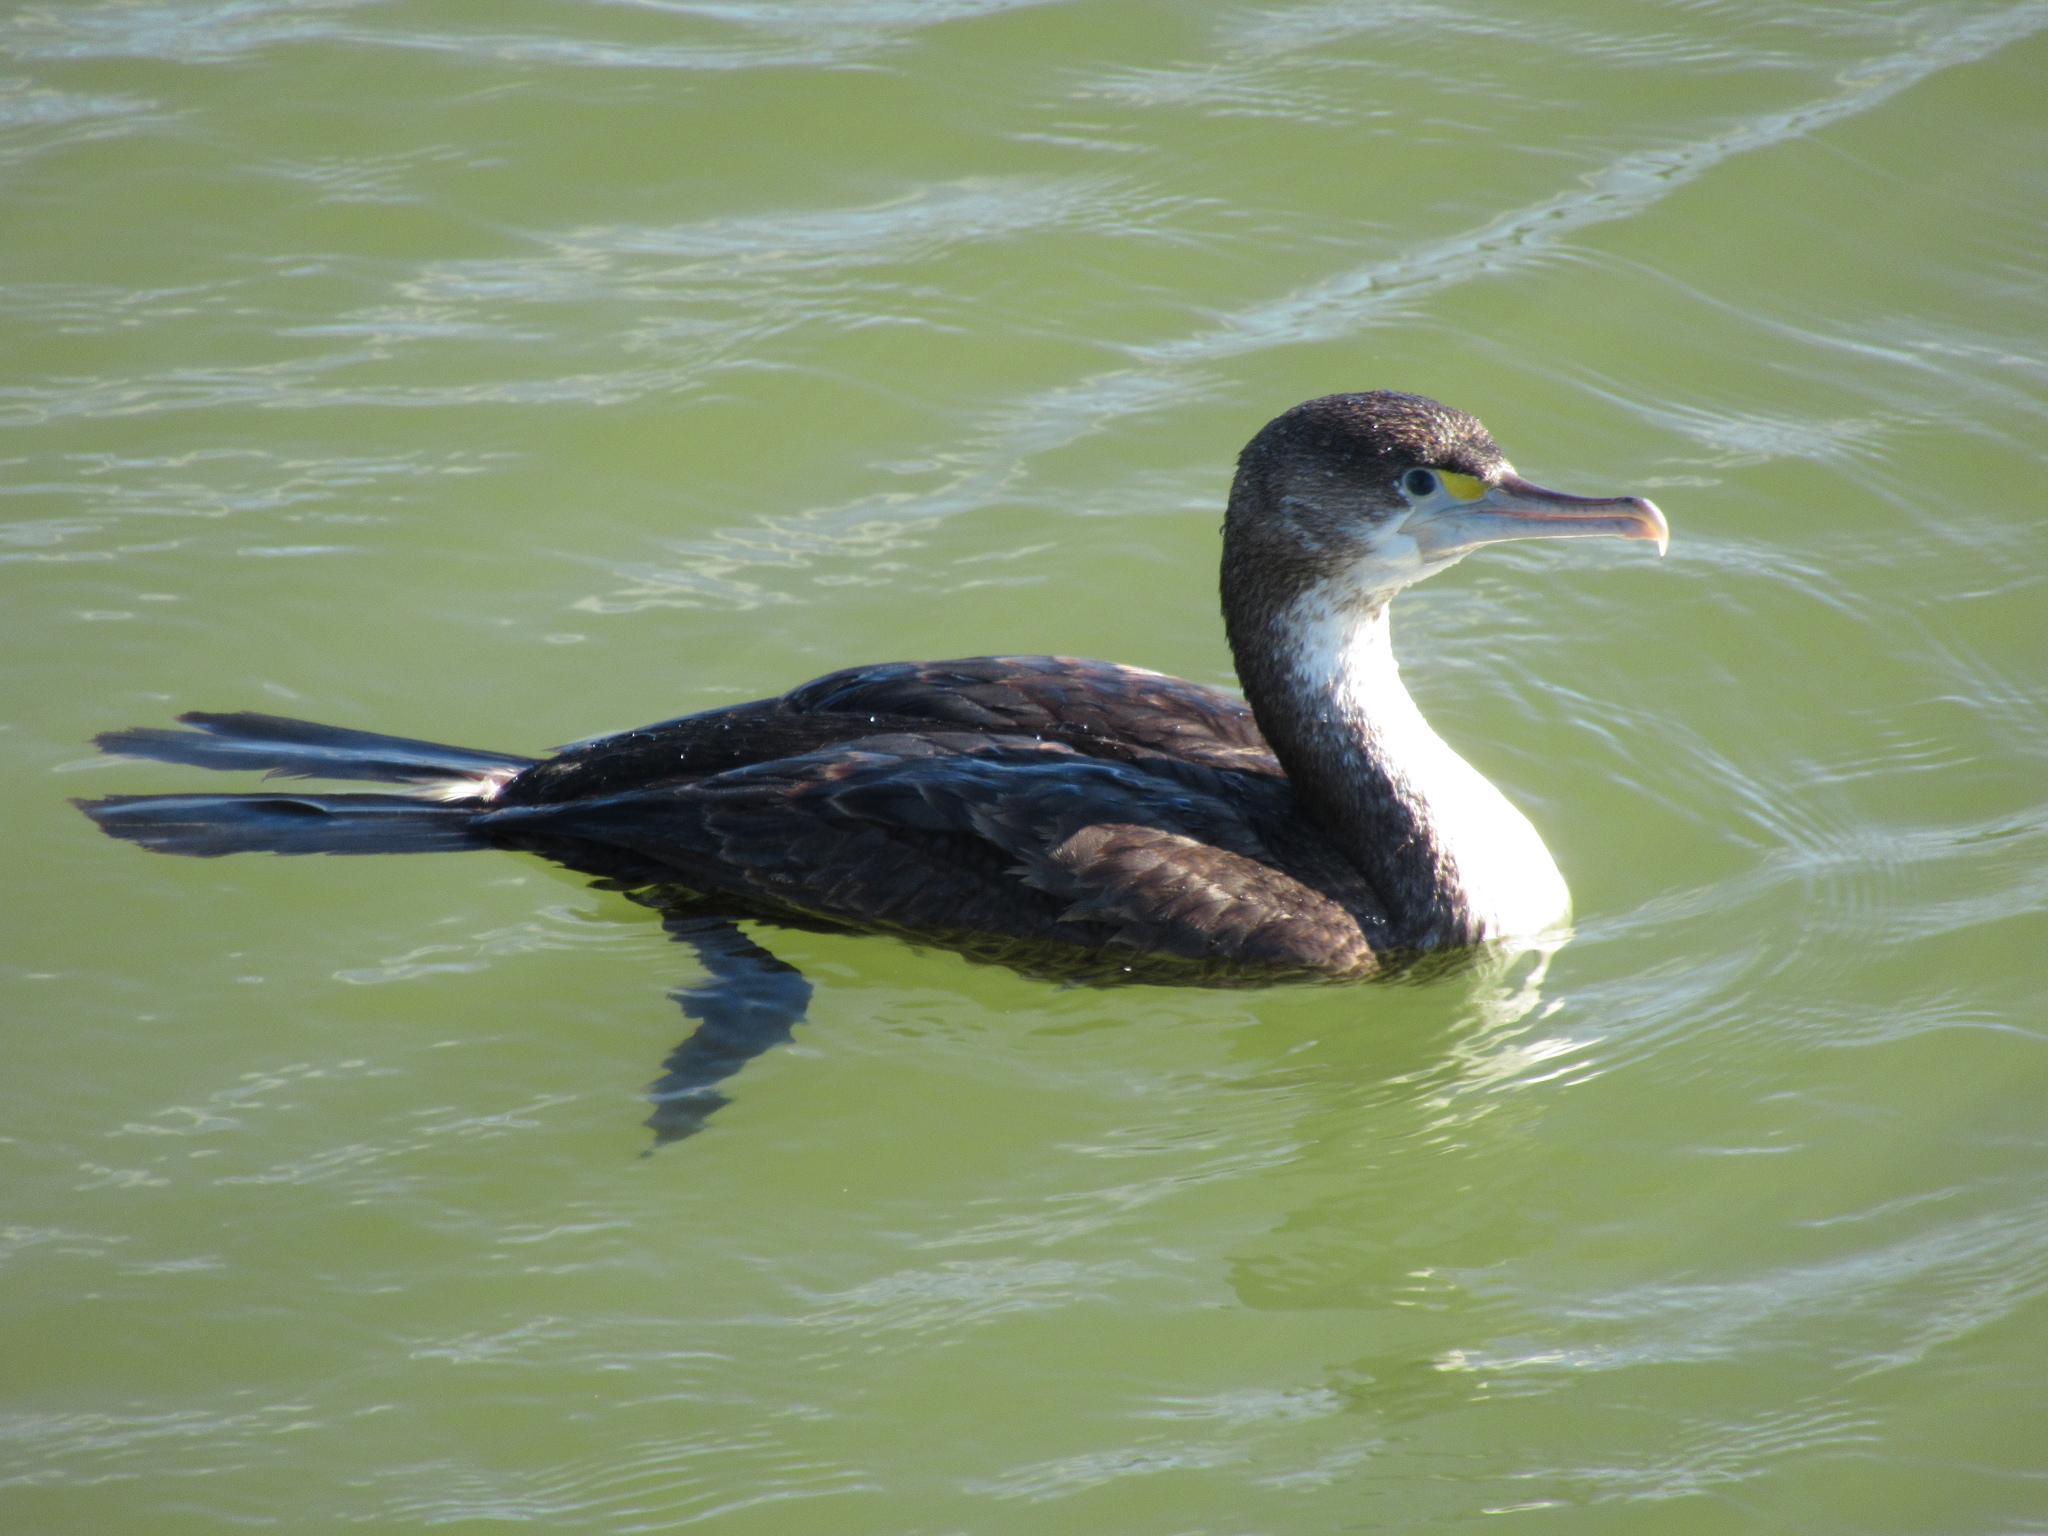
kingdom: Animalia
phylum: Chordata
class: Aves
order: Suliformes
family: Phalacrocoracidae
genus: Phalacrocorax
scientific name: Phalacrocorax varius
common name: Pied cormorant
